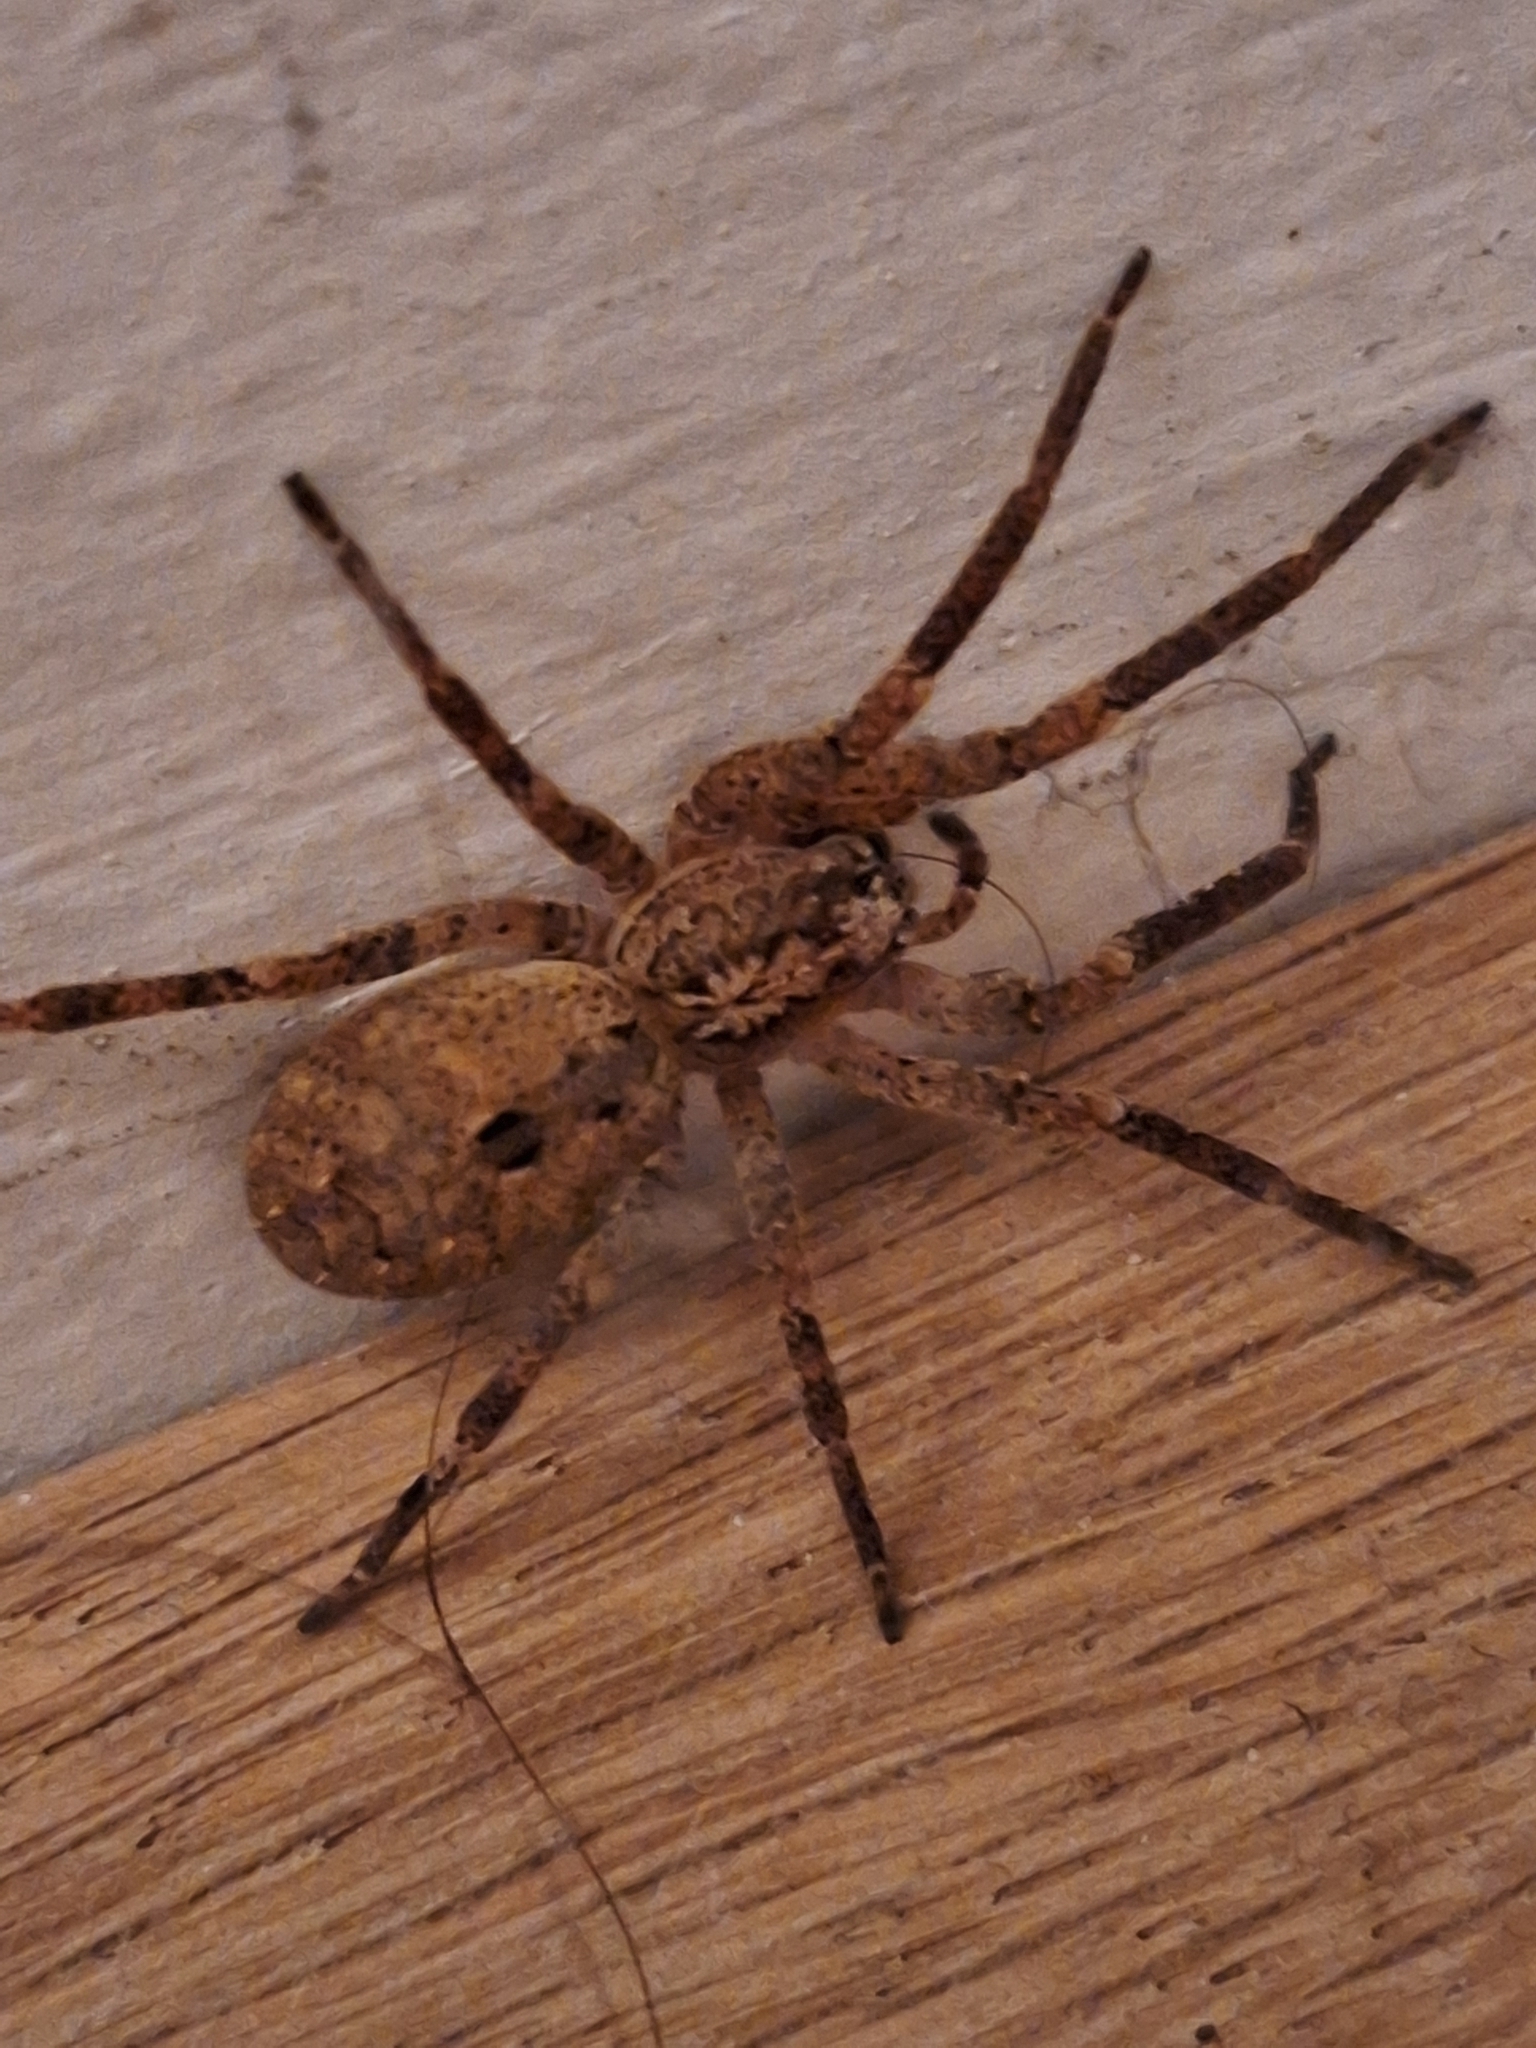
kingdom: Animalia
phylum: Arthropoda
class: Arachnida
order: Araneae
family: Zoropsidae
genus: Zoropsis
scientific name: Zoropsis spinimana
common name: Zoropsid spider
